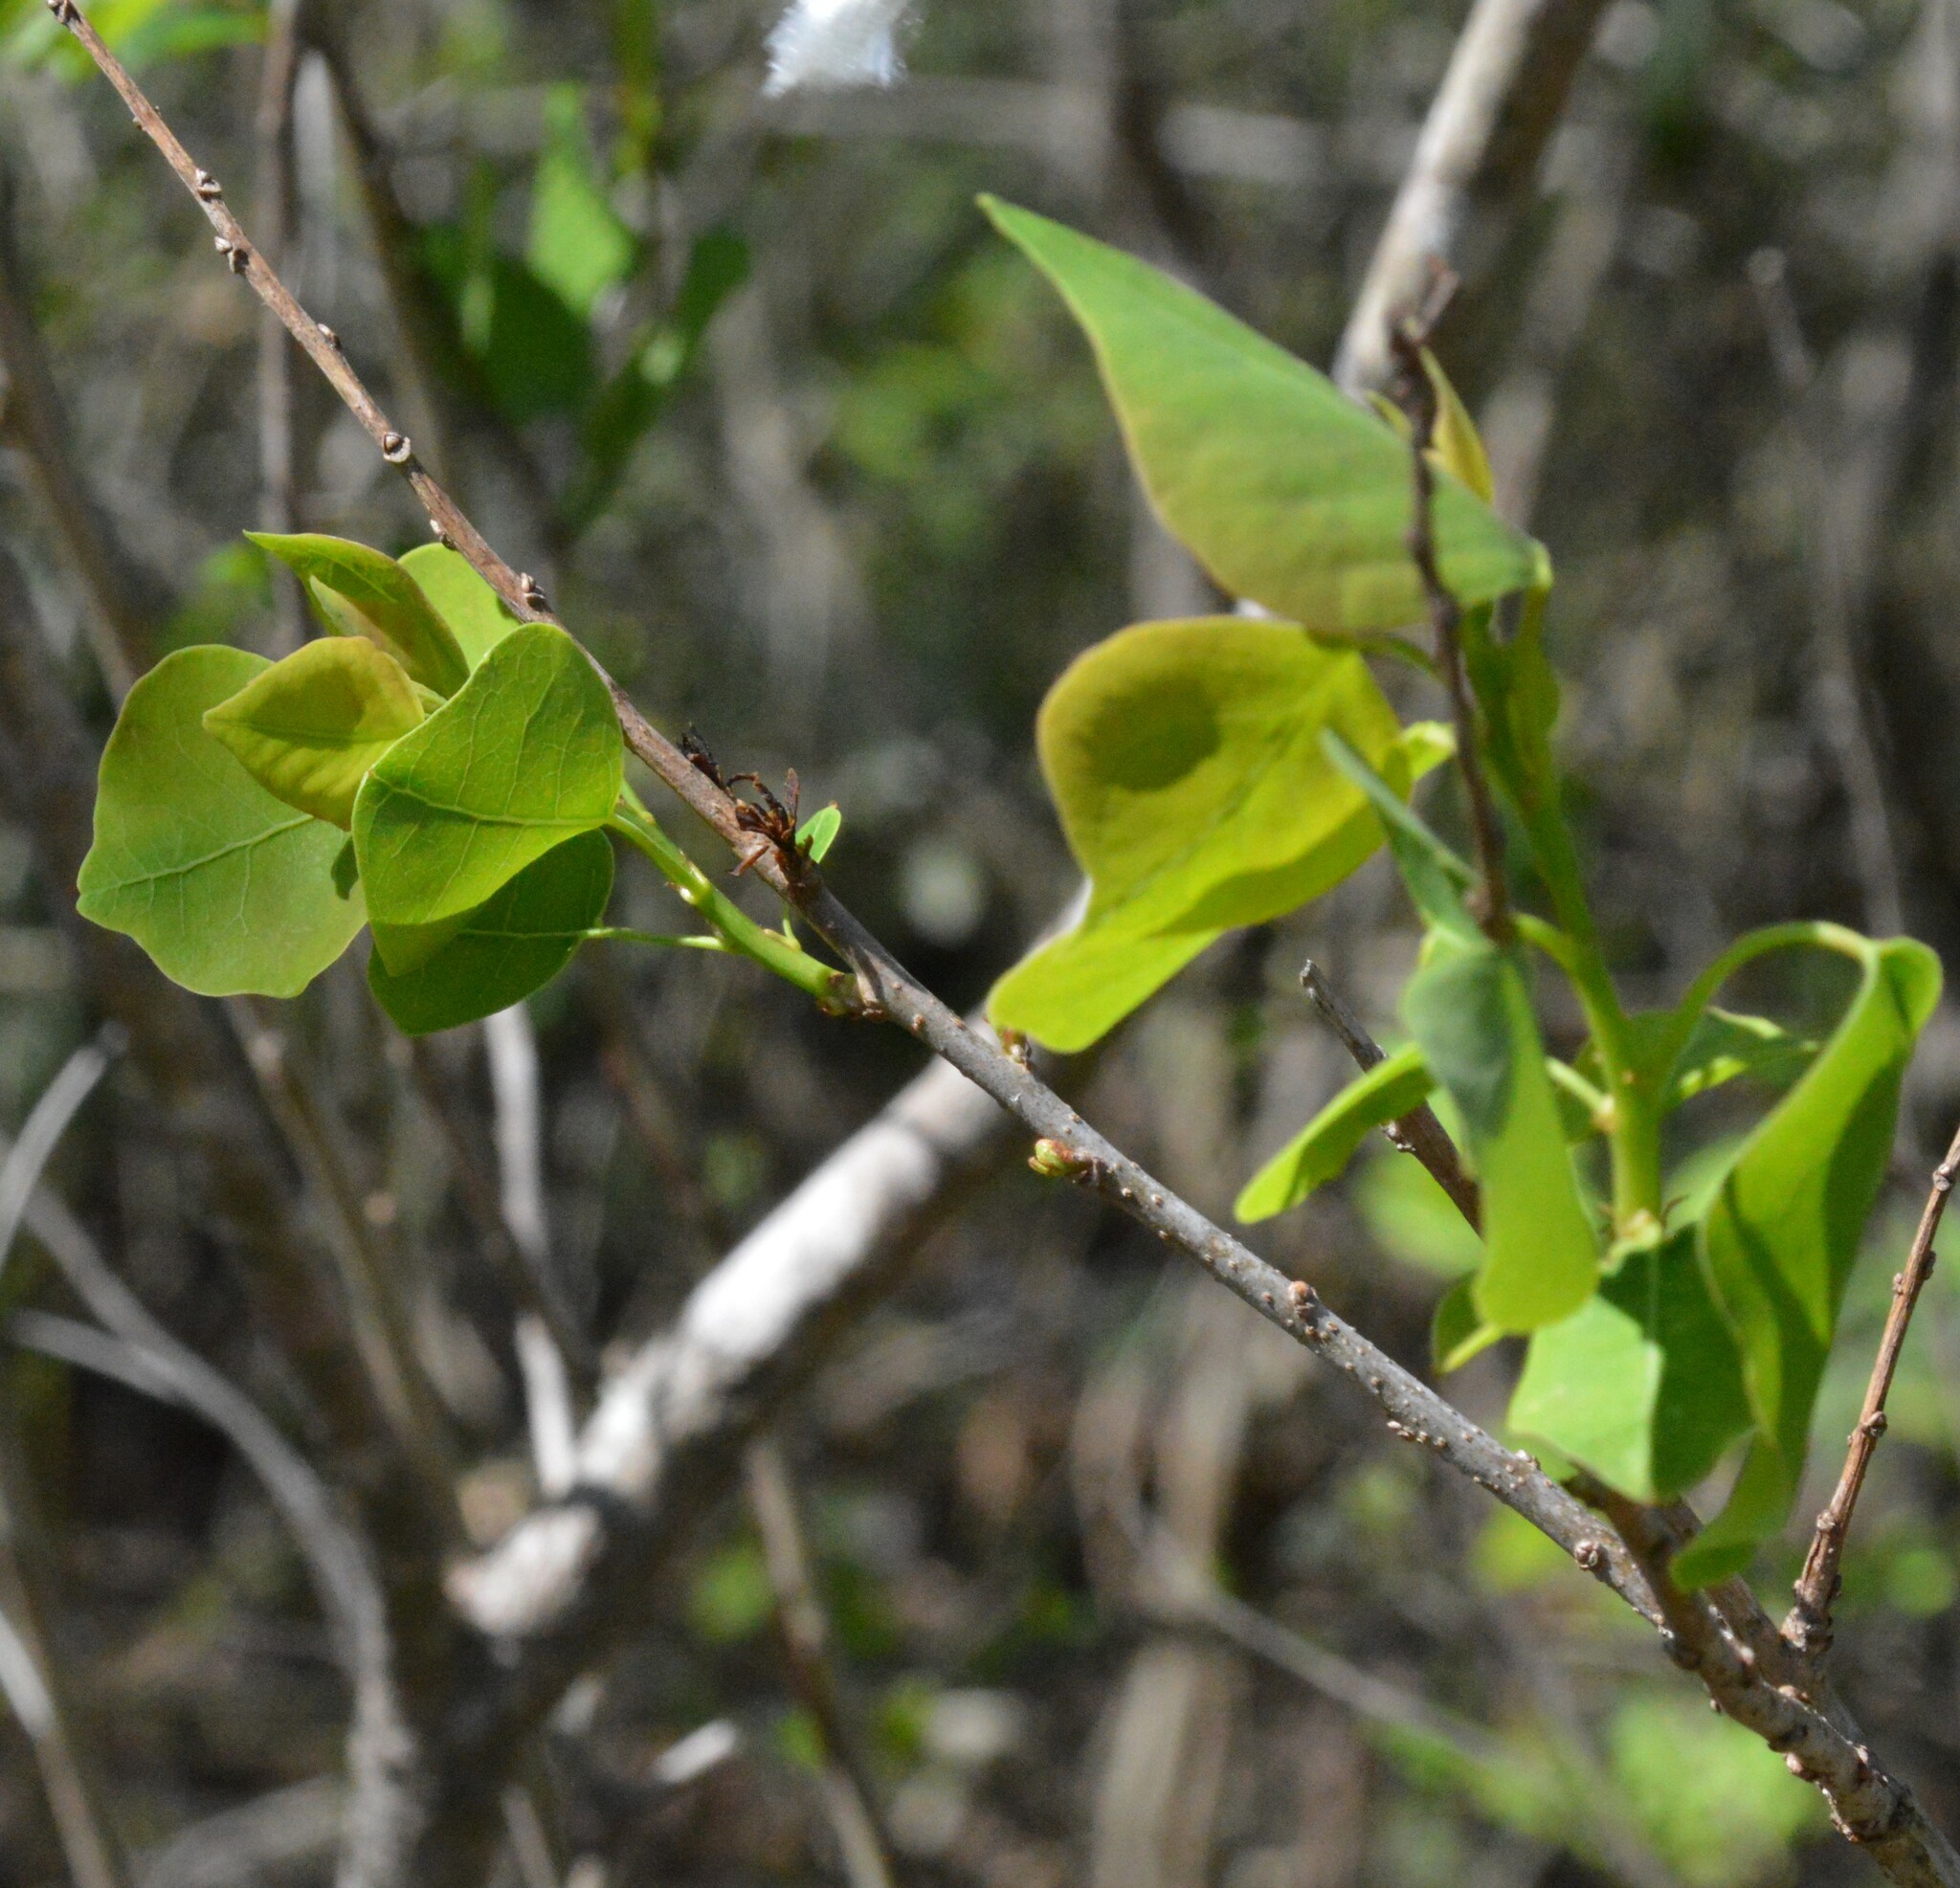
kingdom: Plantae
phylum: Tracheophyta
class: Magnoliopsida
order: Malpighiales
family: Euphorbiaceae
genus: Triadica
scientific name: Triadica sebifera
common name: Chinese tallow
